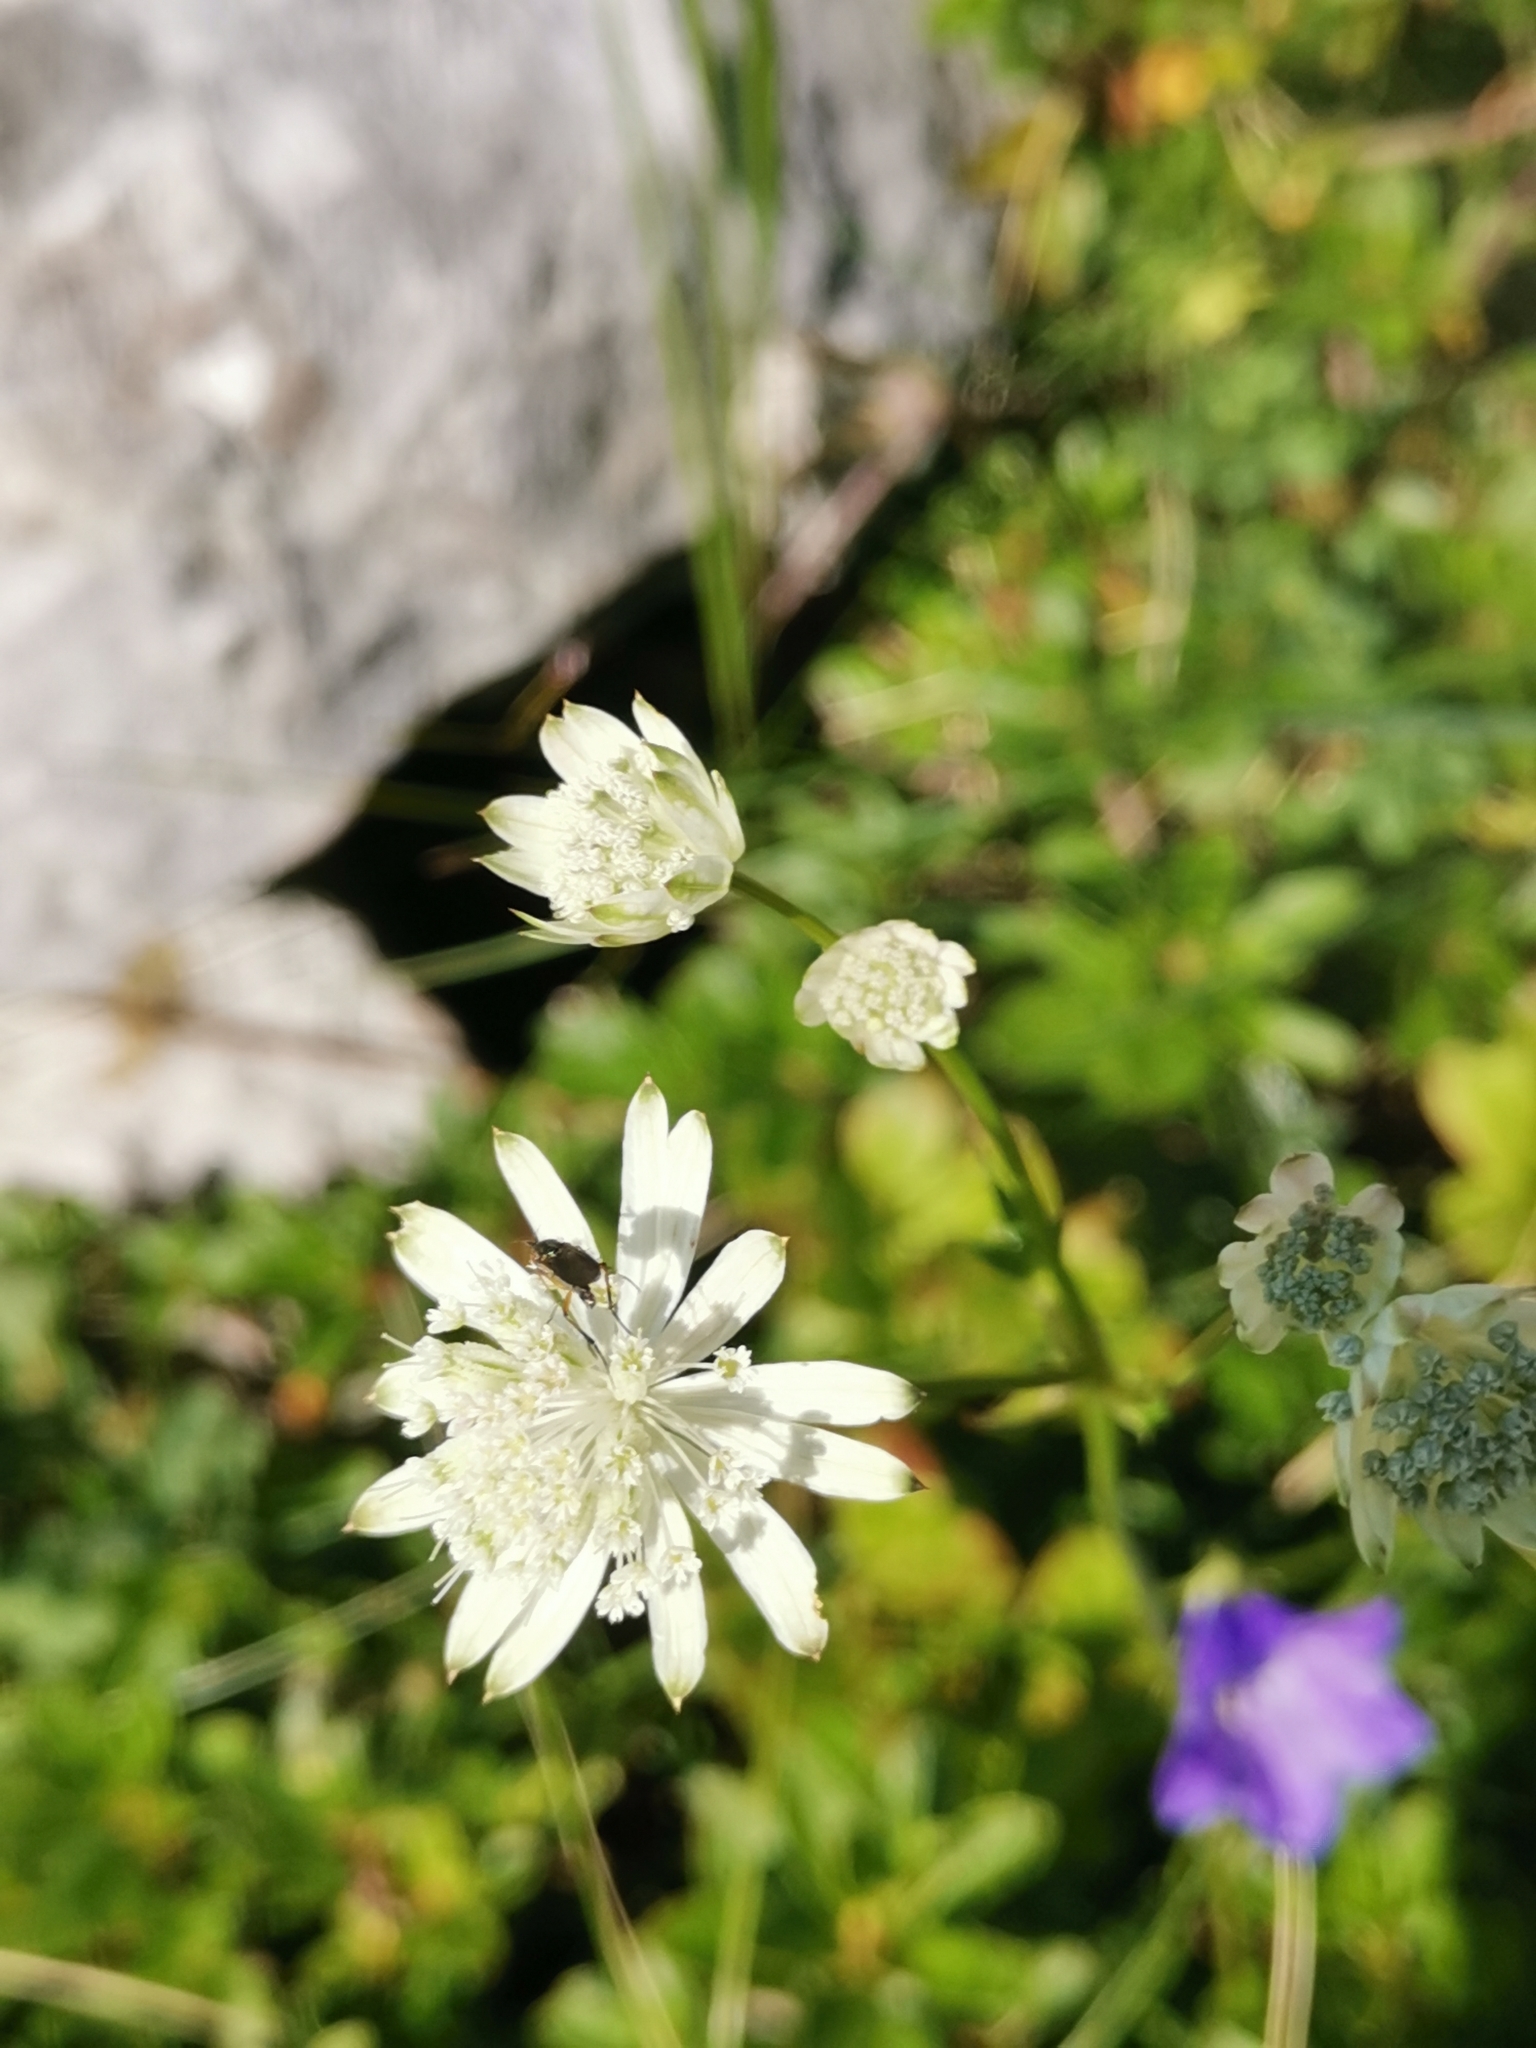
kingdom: Plantae
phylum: Tracheophyta
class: Magnoliopsida
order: Apiales
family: Apiaceae
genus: Astrantia
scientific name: Astrantia bavarica
